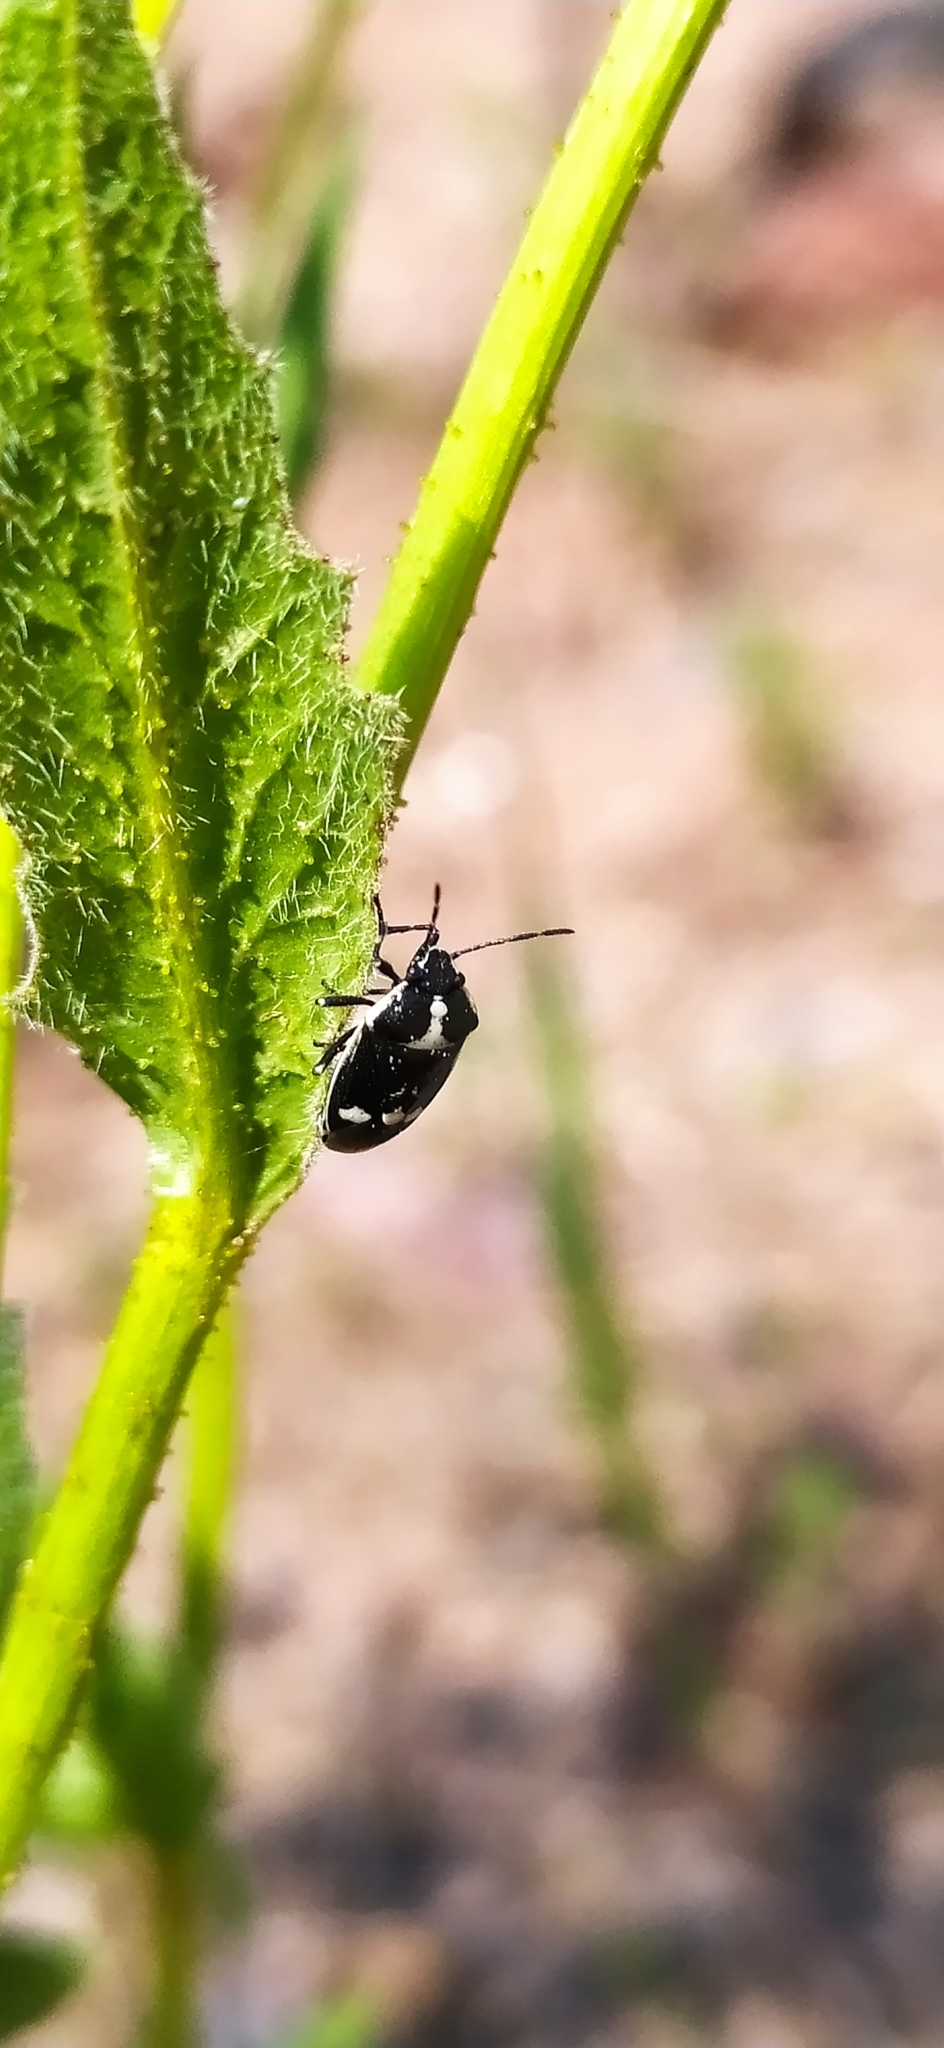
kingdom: Animalia
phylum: Arthropoda
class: Insecta
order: Hemiptera
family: Pentatomidae
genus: Eurydema
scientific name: Eurydema oleracea
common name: Cabbage bug
